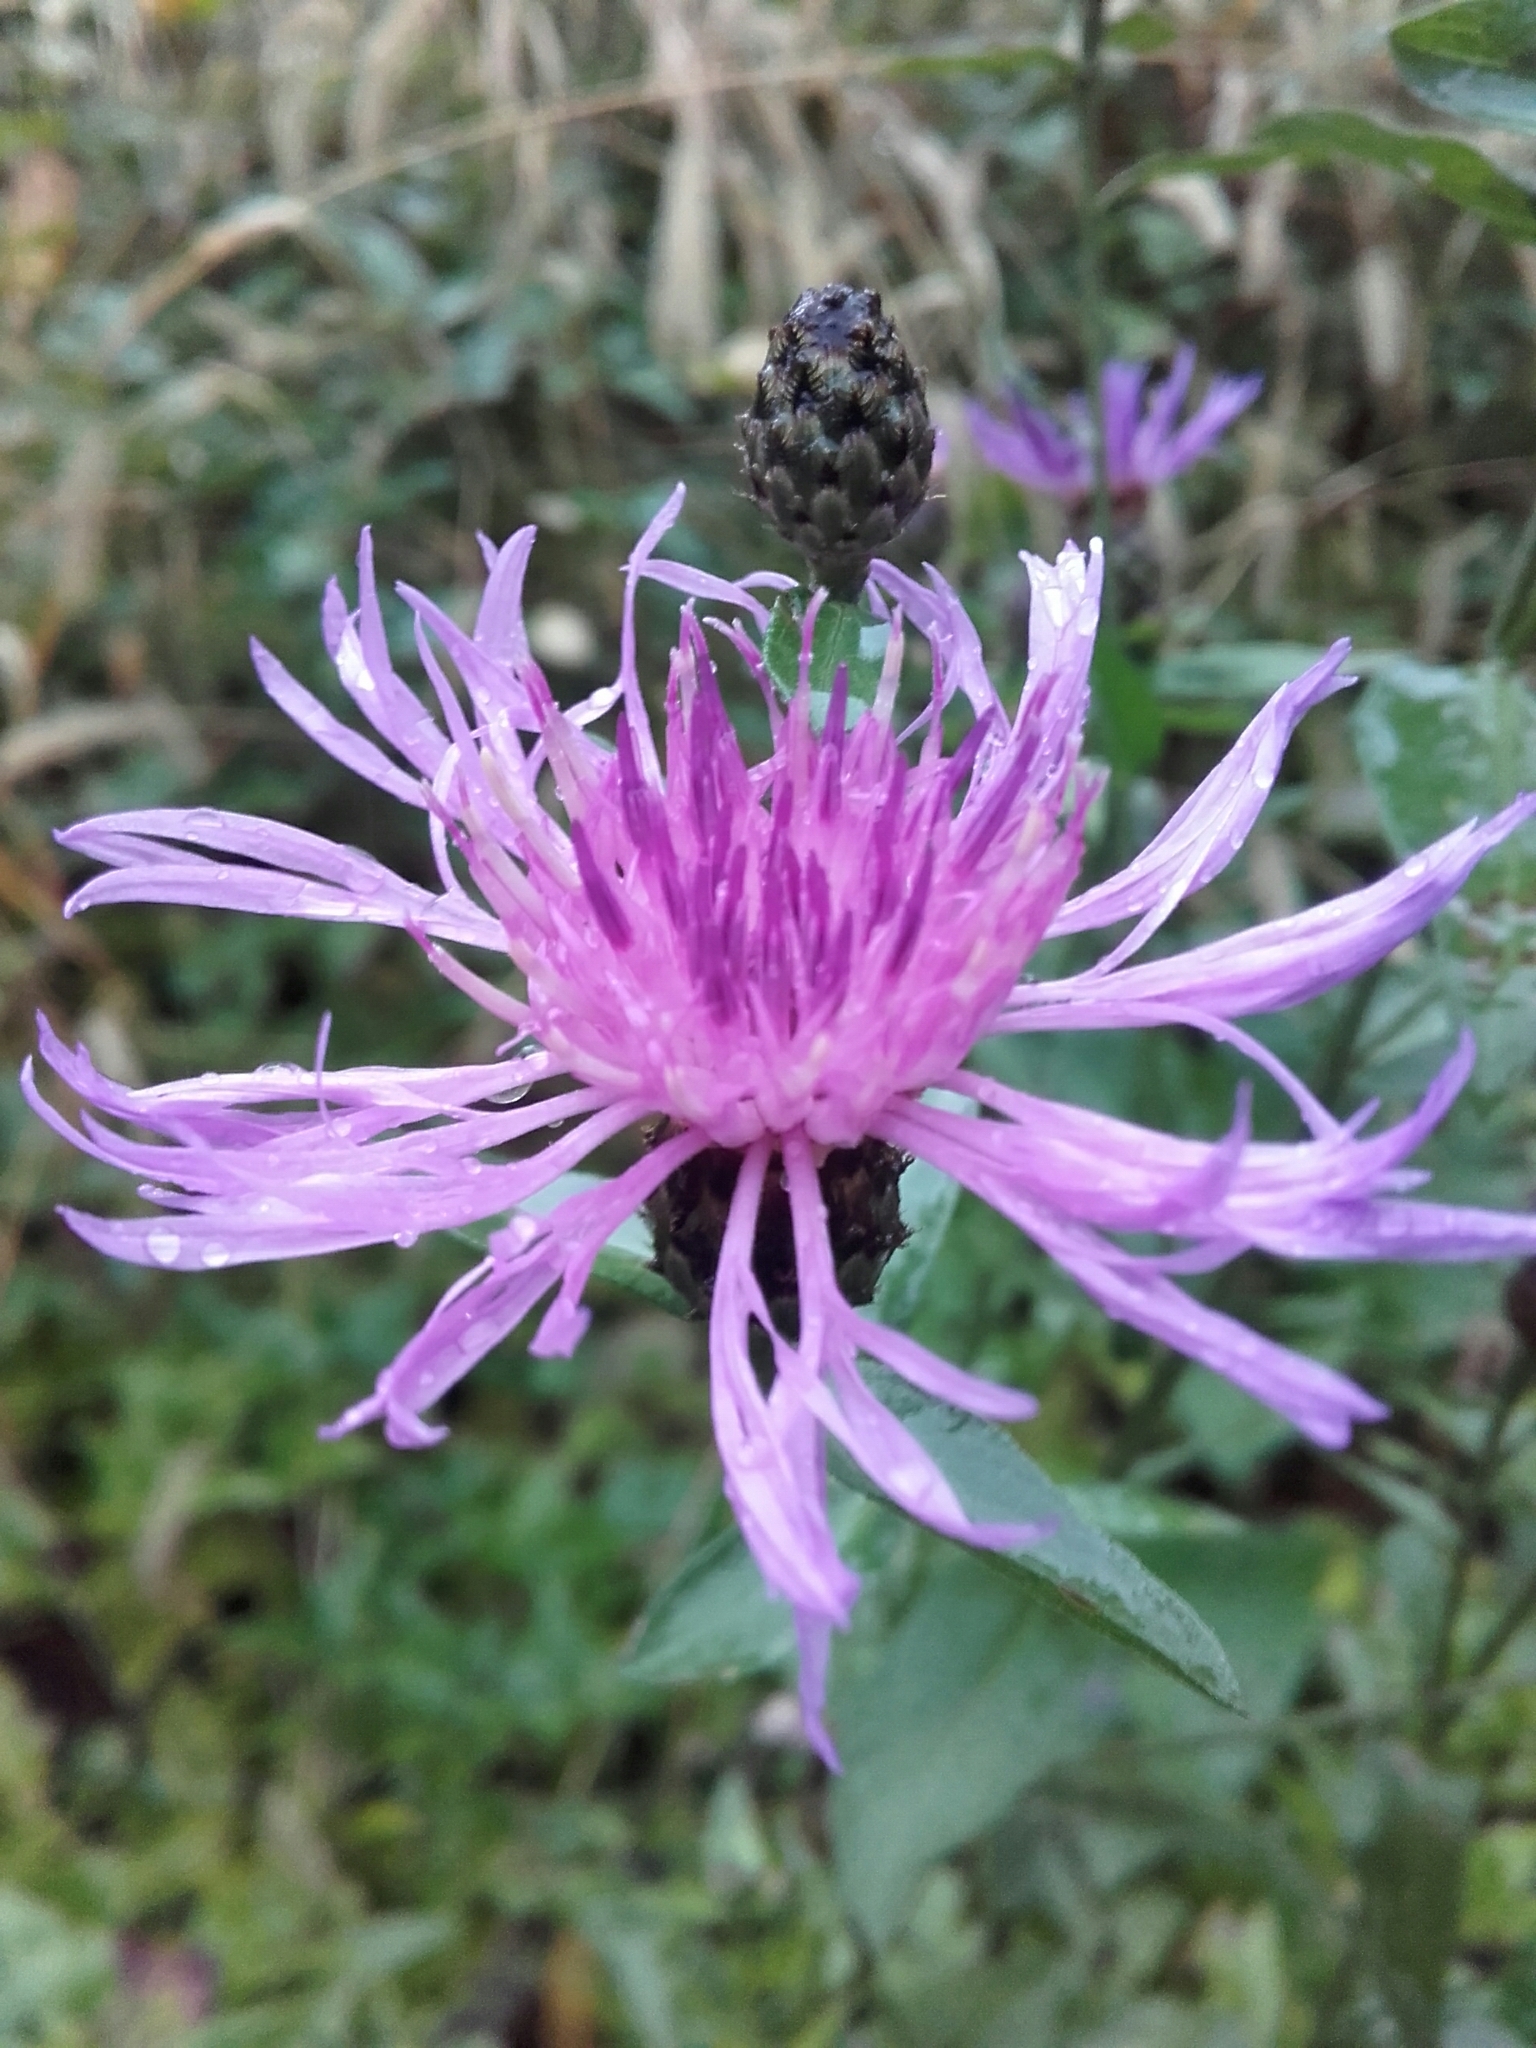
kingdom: Plantae
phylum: Tracheophyta
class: Magnoliopsida
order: Asterales
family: Asteraceae
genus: Centaurea
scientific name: Centaurea nigrescens
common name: Tyrol knapweed
